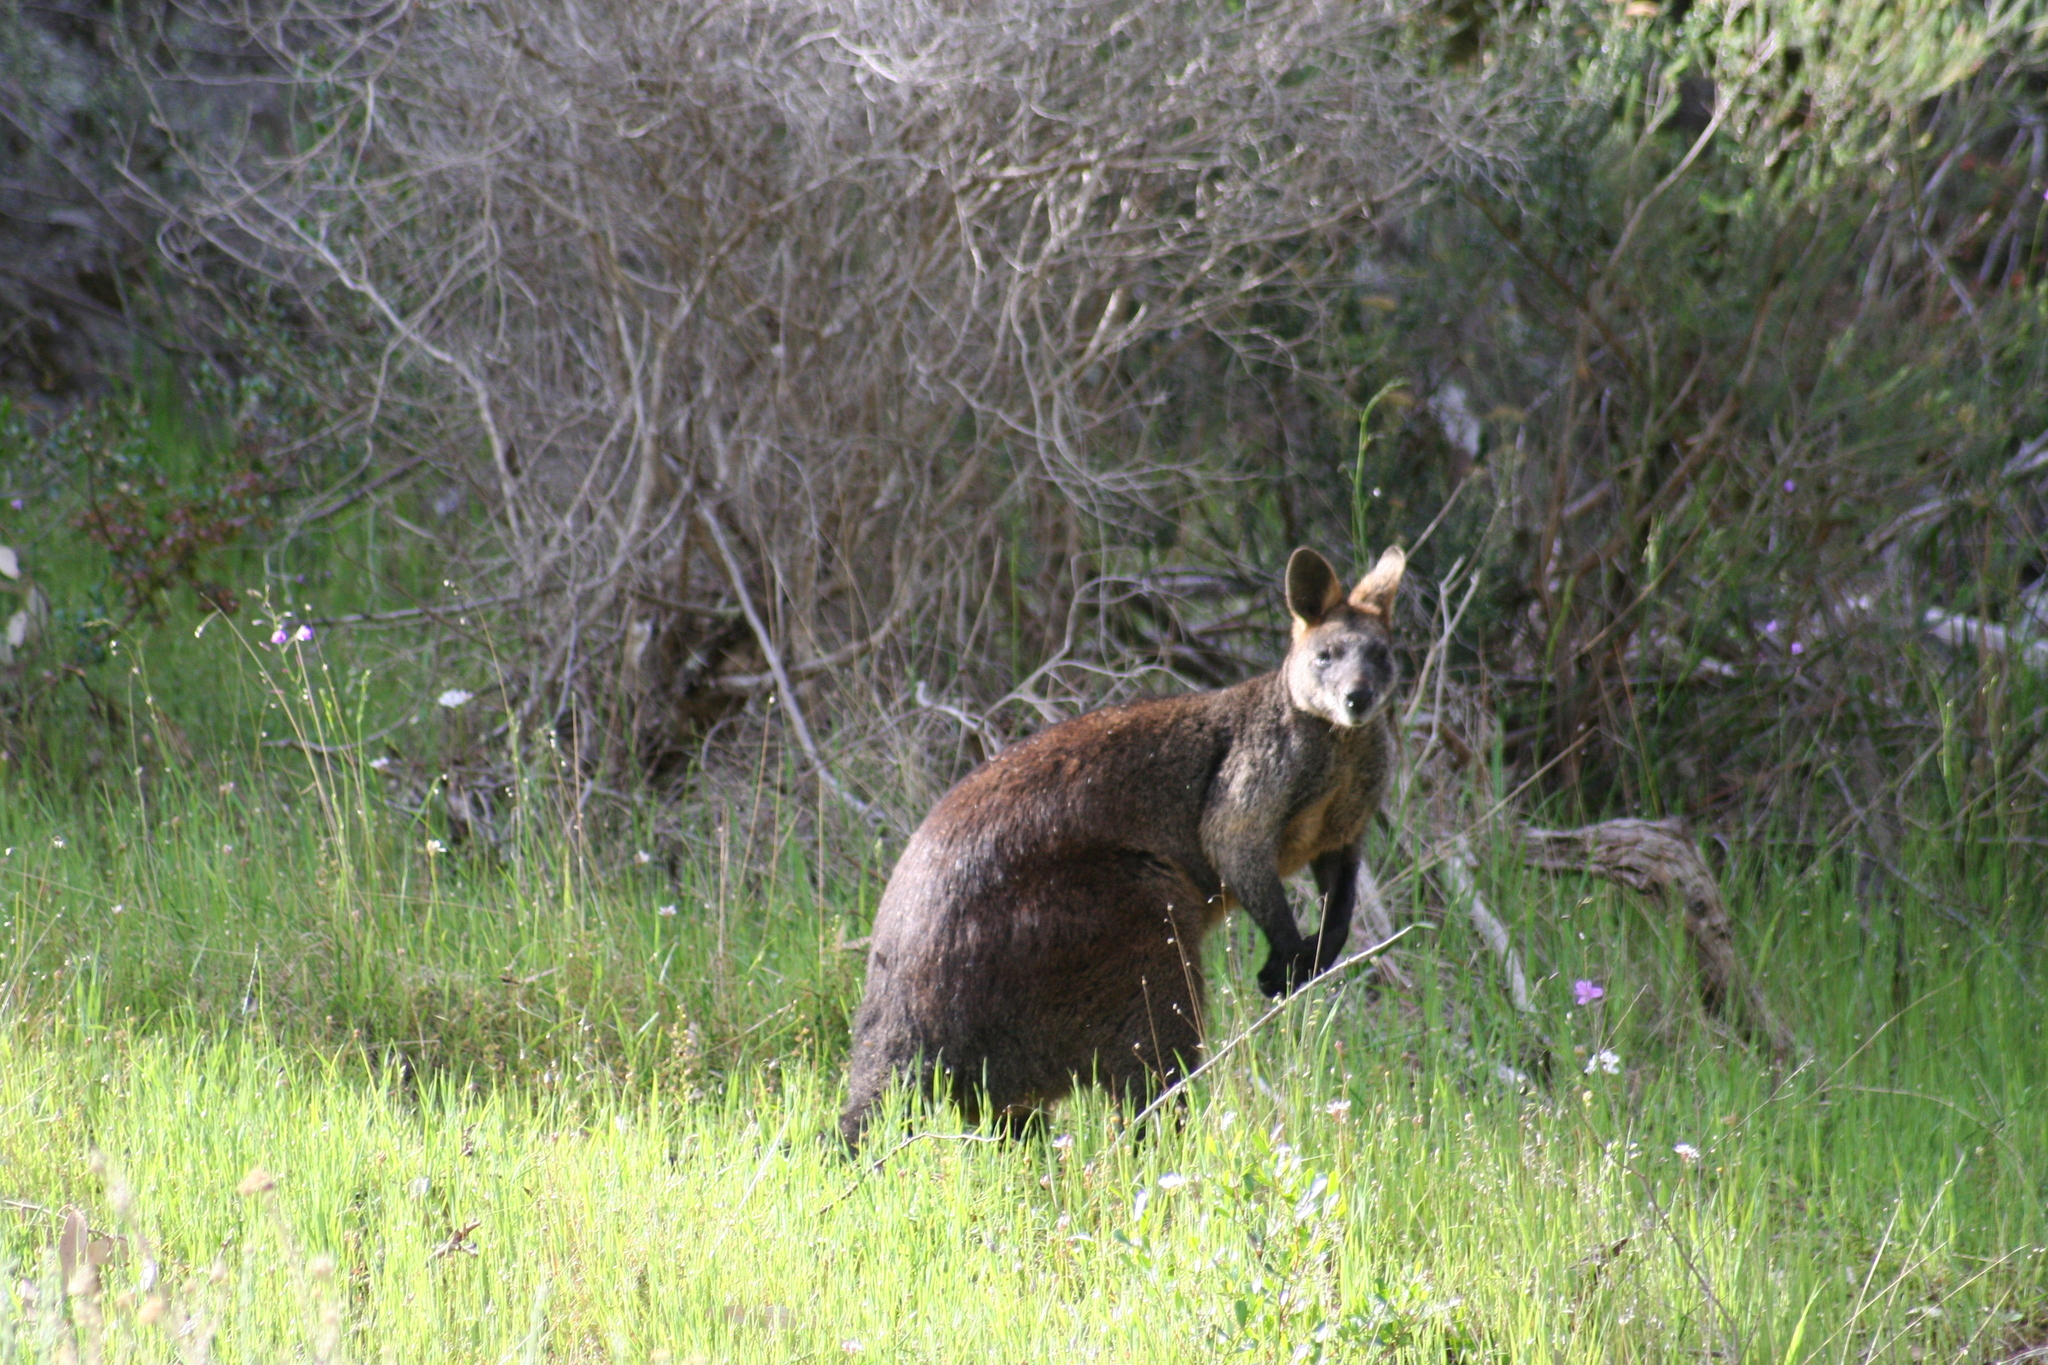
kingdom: Animalia
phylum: Chordata
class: Mammalia
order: Diprotodontia
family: Macropodidae
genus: Wallabia
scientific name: Wallabia bicolor
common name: Swamp wallaby
